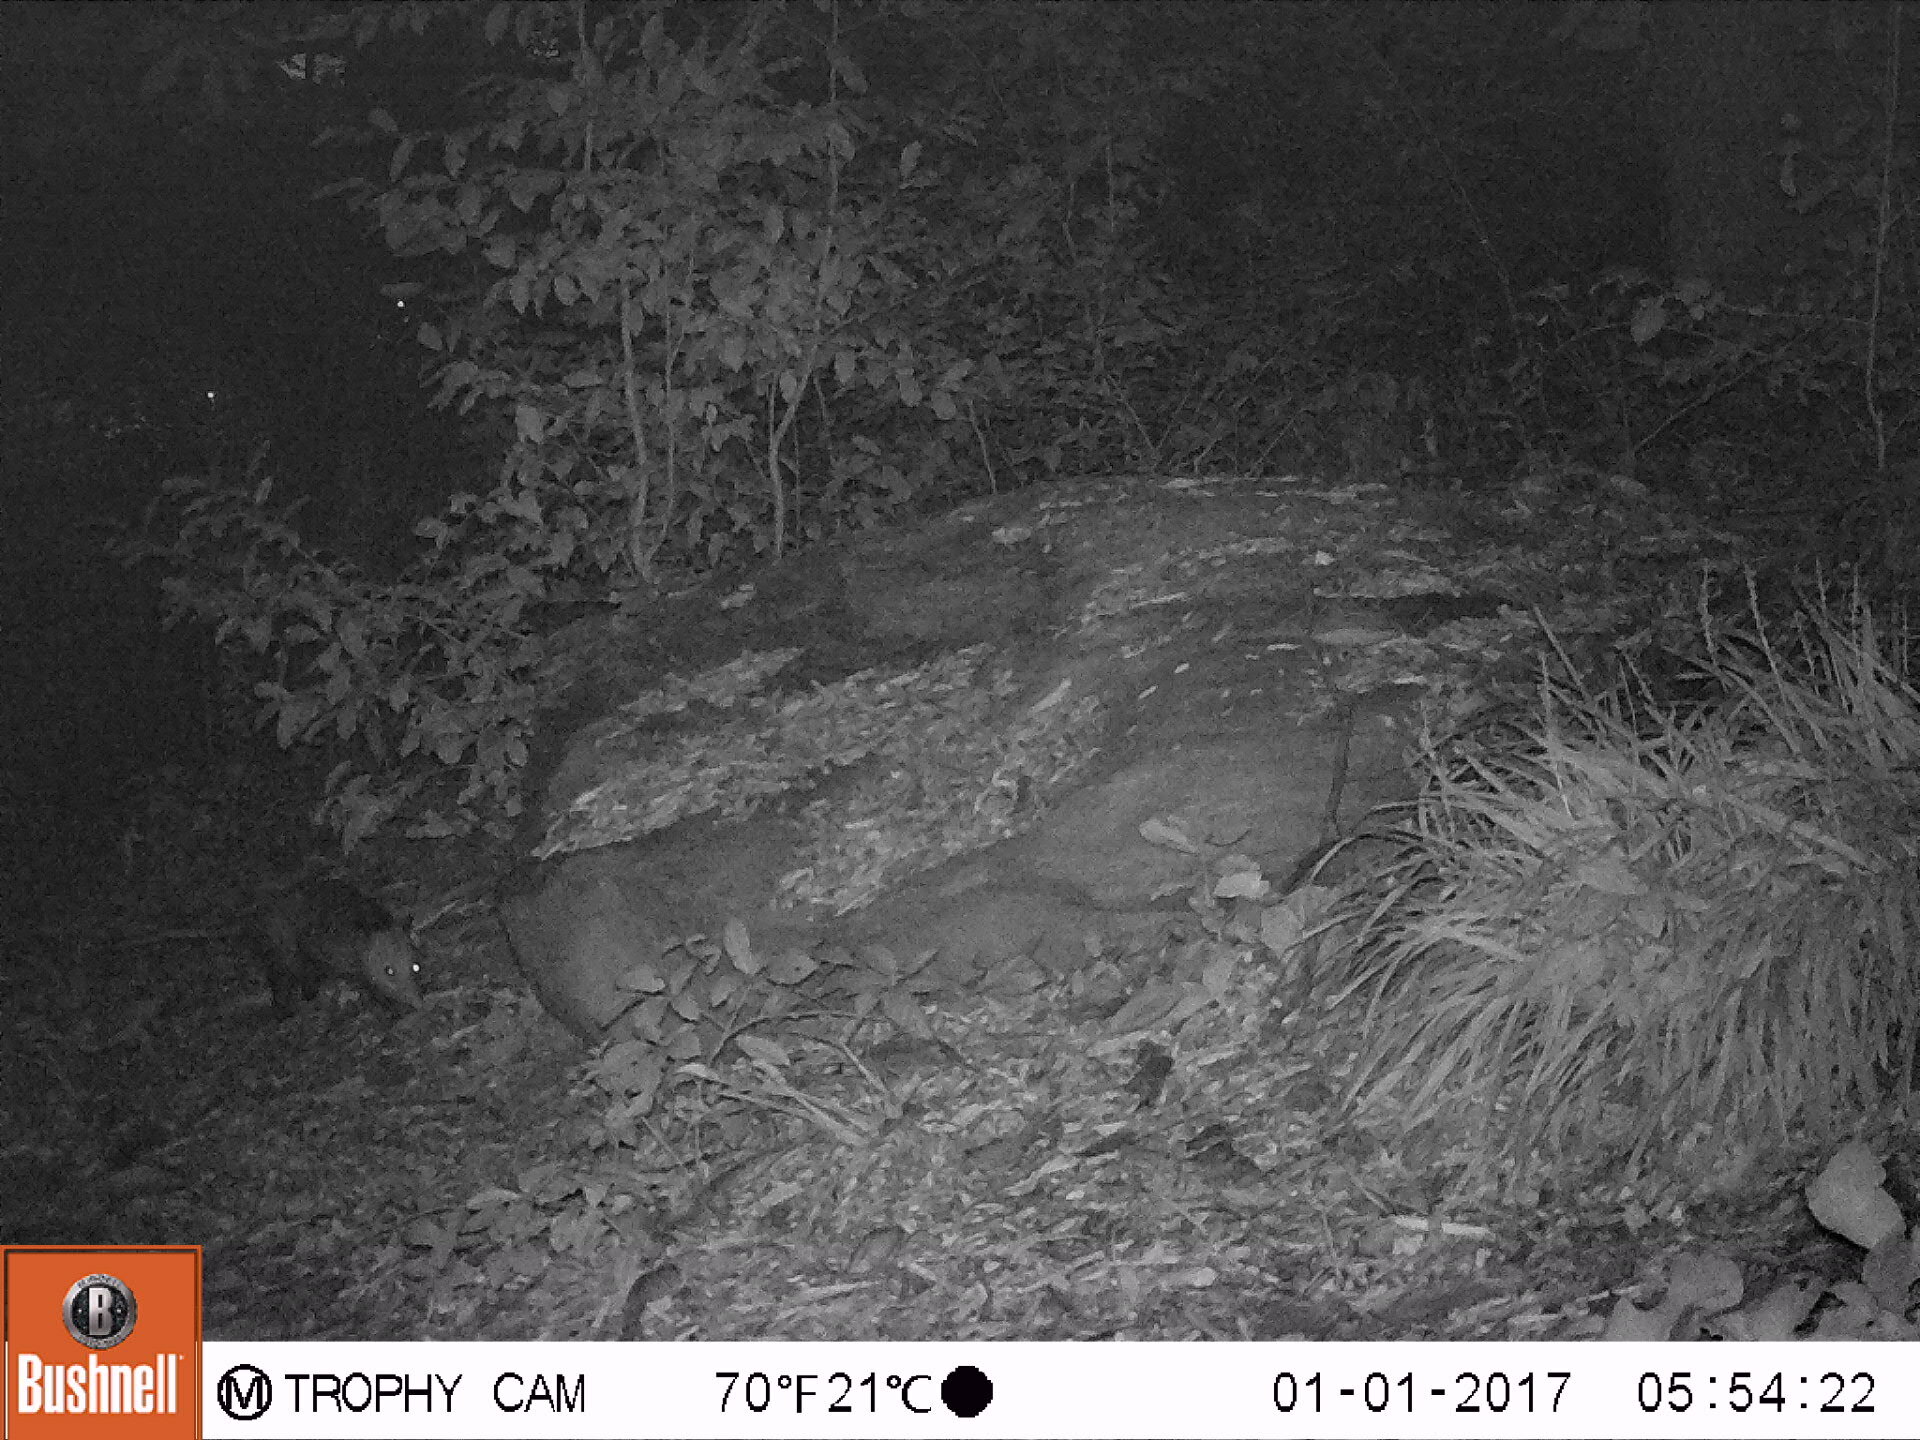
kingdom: Animalia
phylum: Chordata
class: Mammalia
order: Didelphimorphia
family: Didelphidae
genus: Didelphis
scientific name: Didelphis virginiana
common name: Virginia opossum
